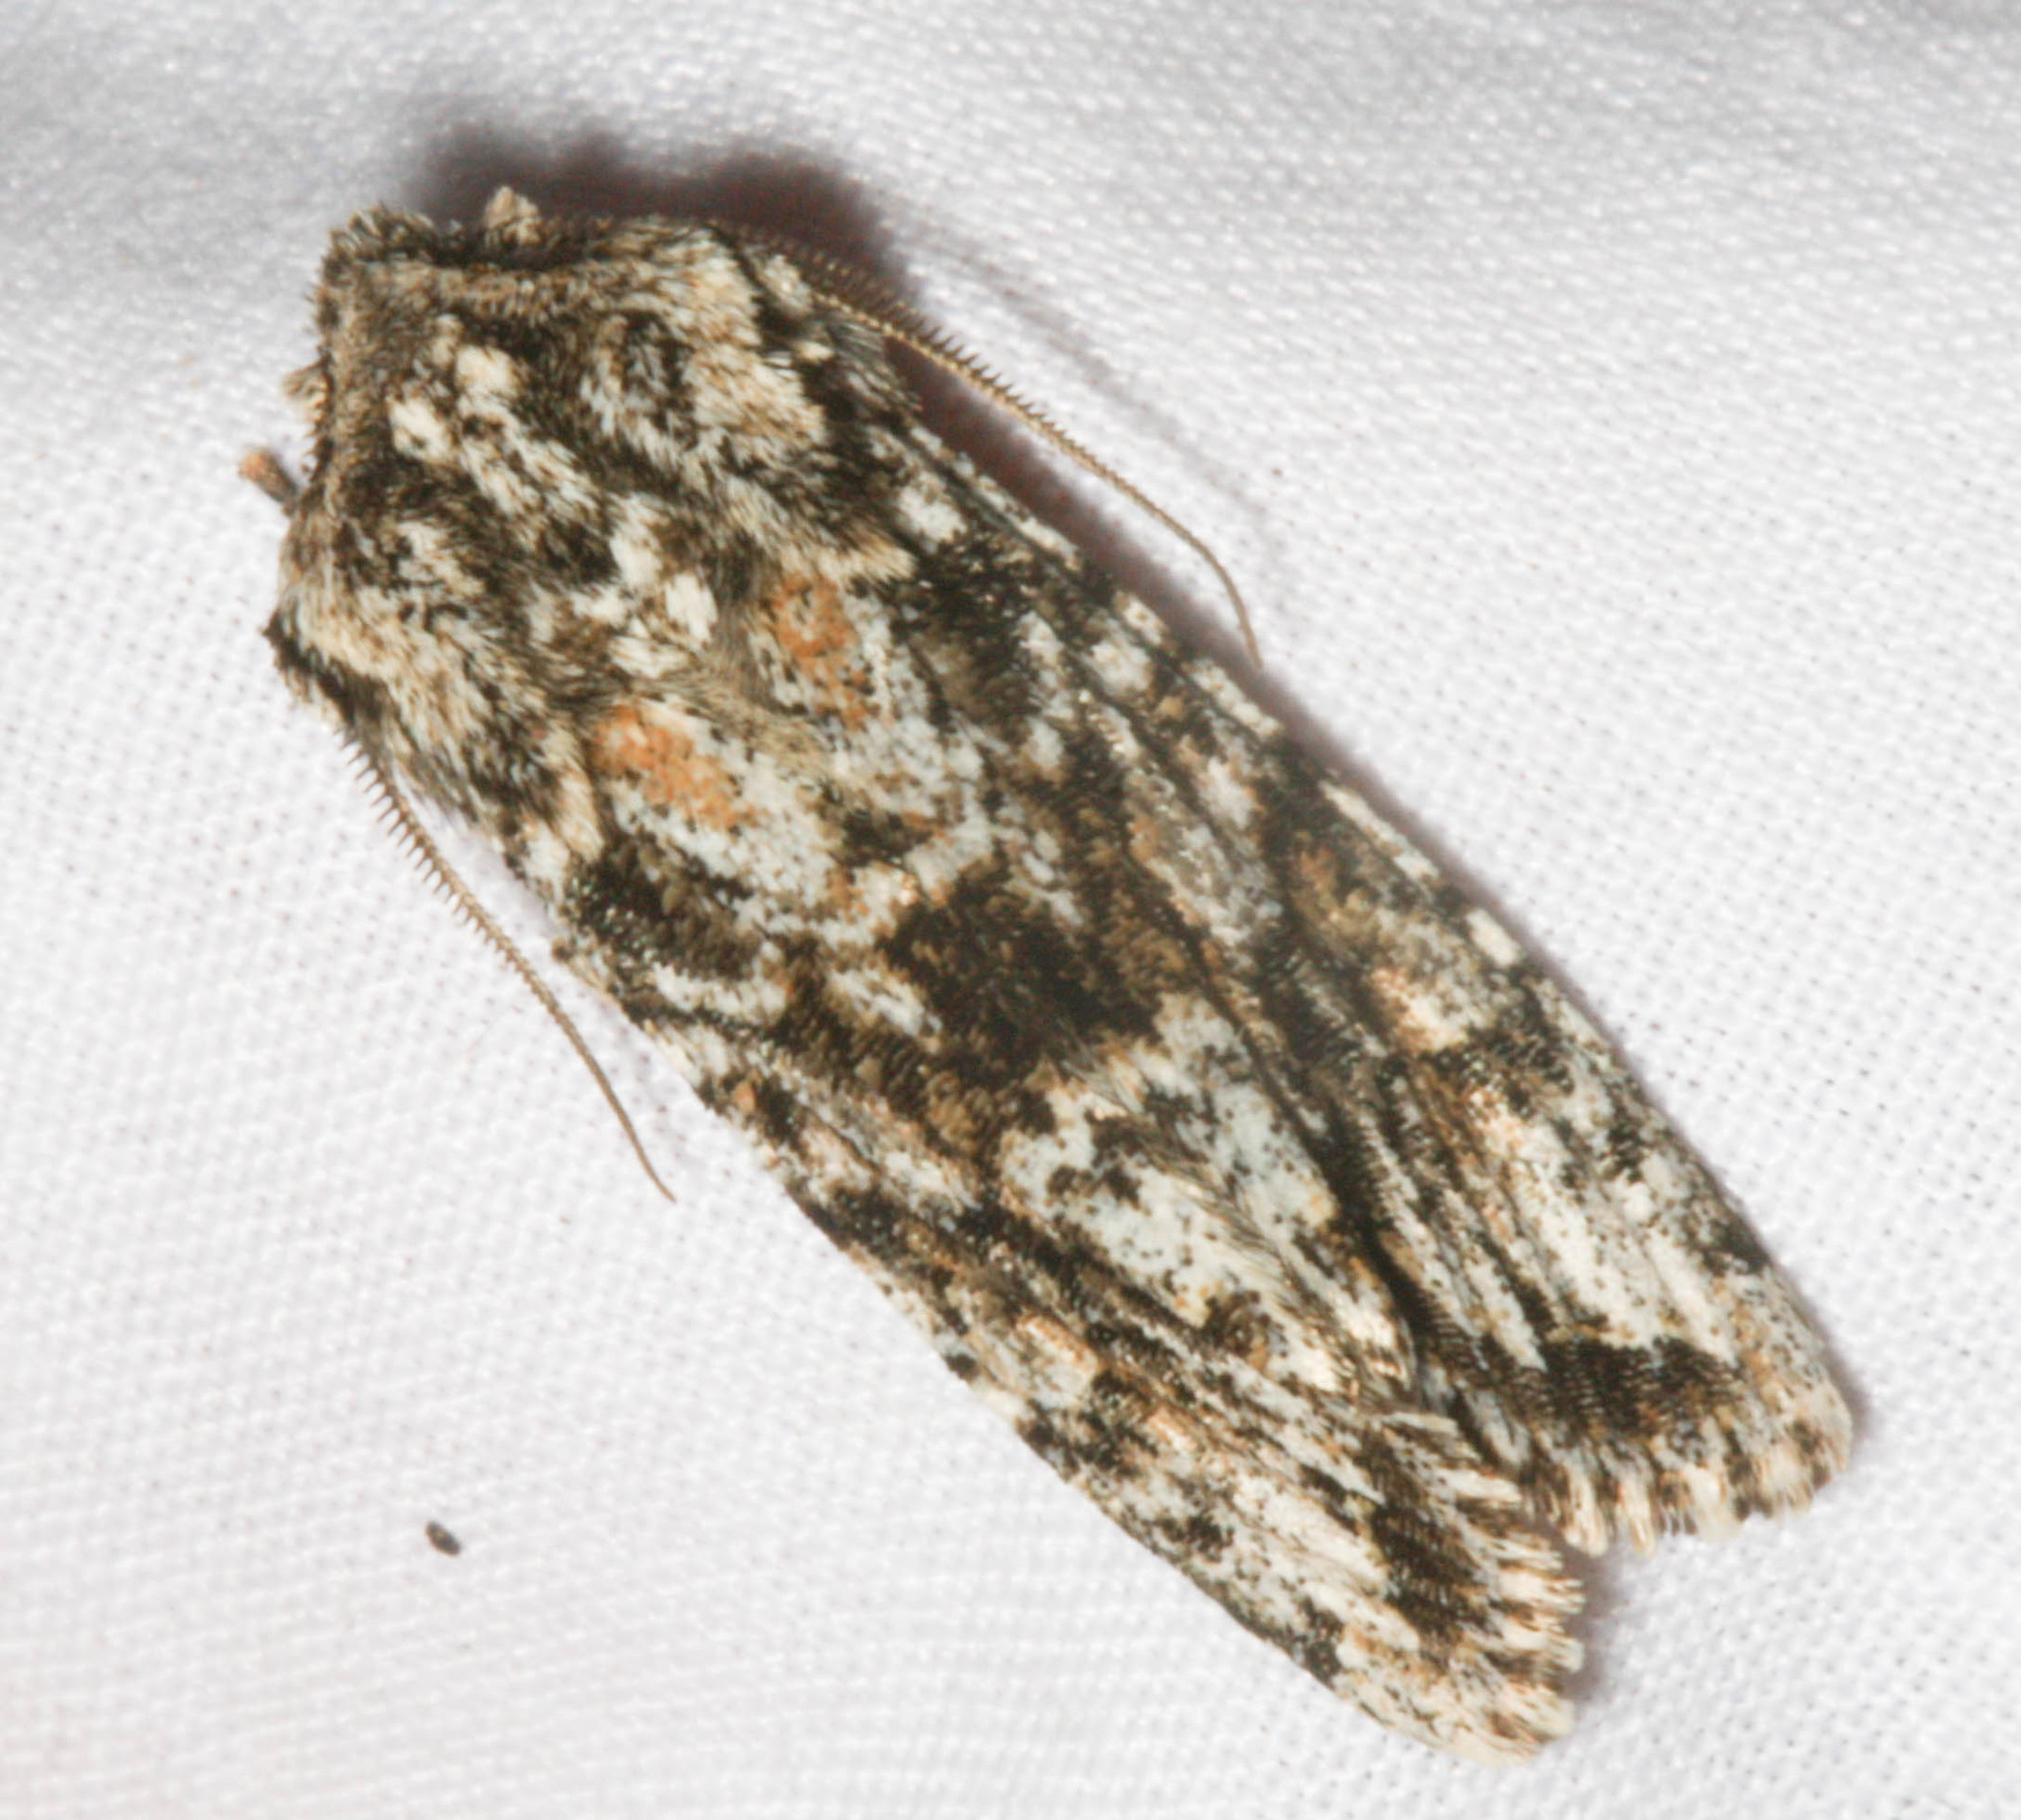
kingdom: Animalia
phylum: Arthropoda
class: Insecta
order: Lepidoptera
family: Noctuidae
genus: Egira
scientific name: Egira cognata
